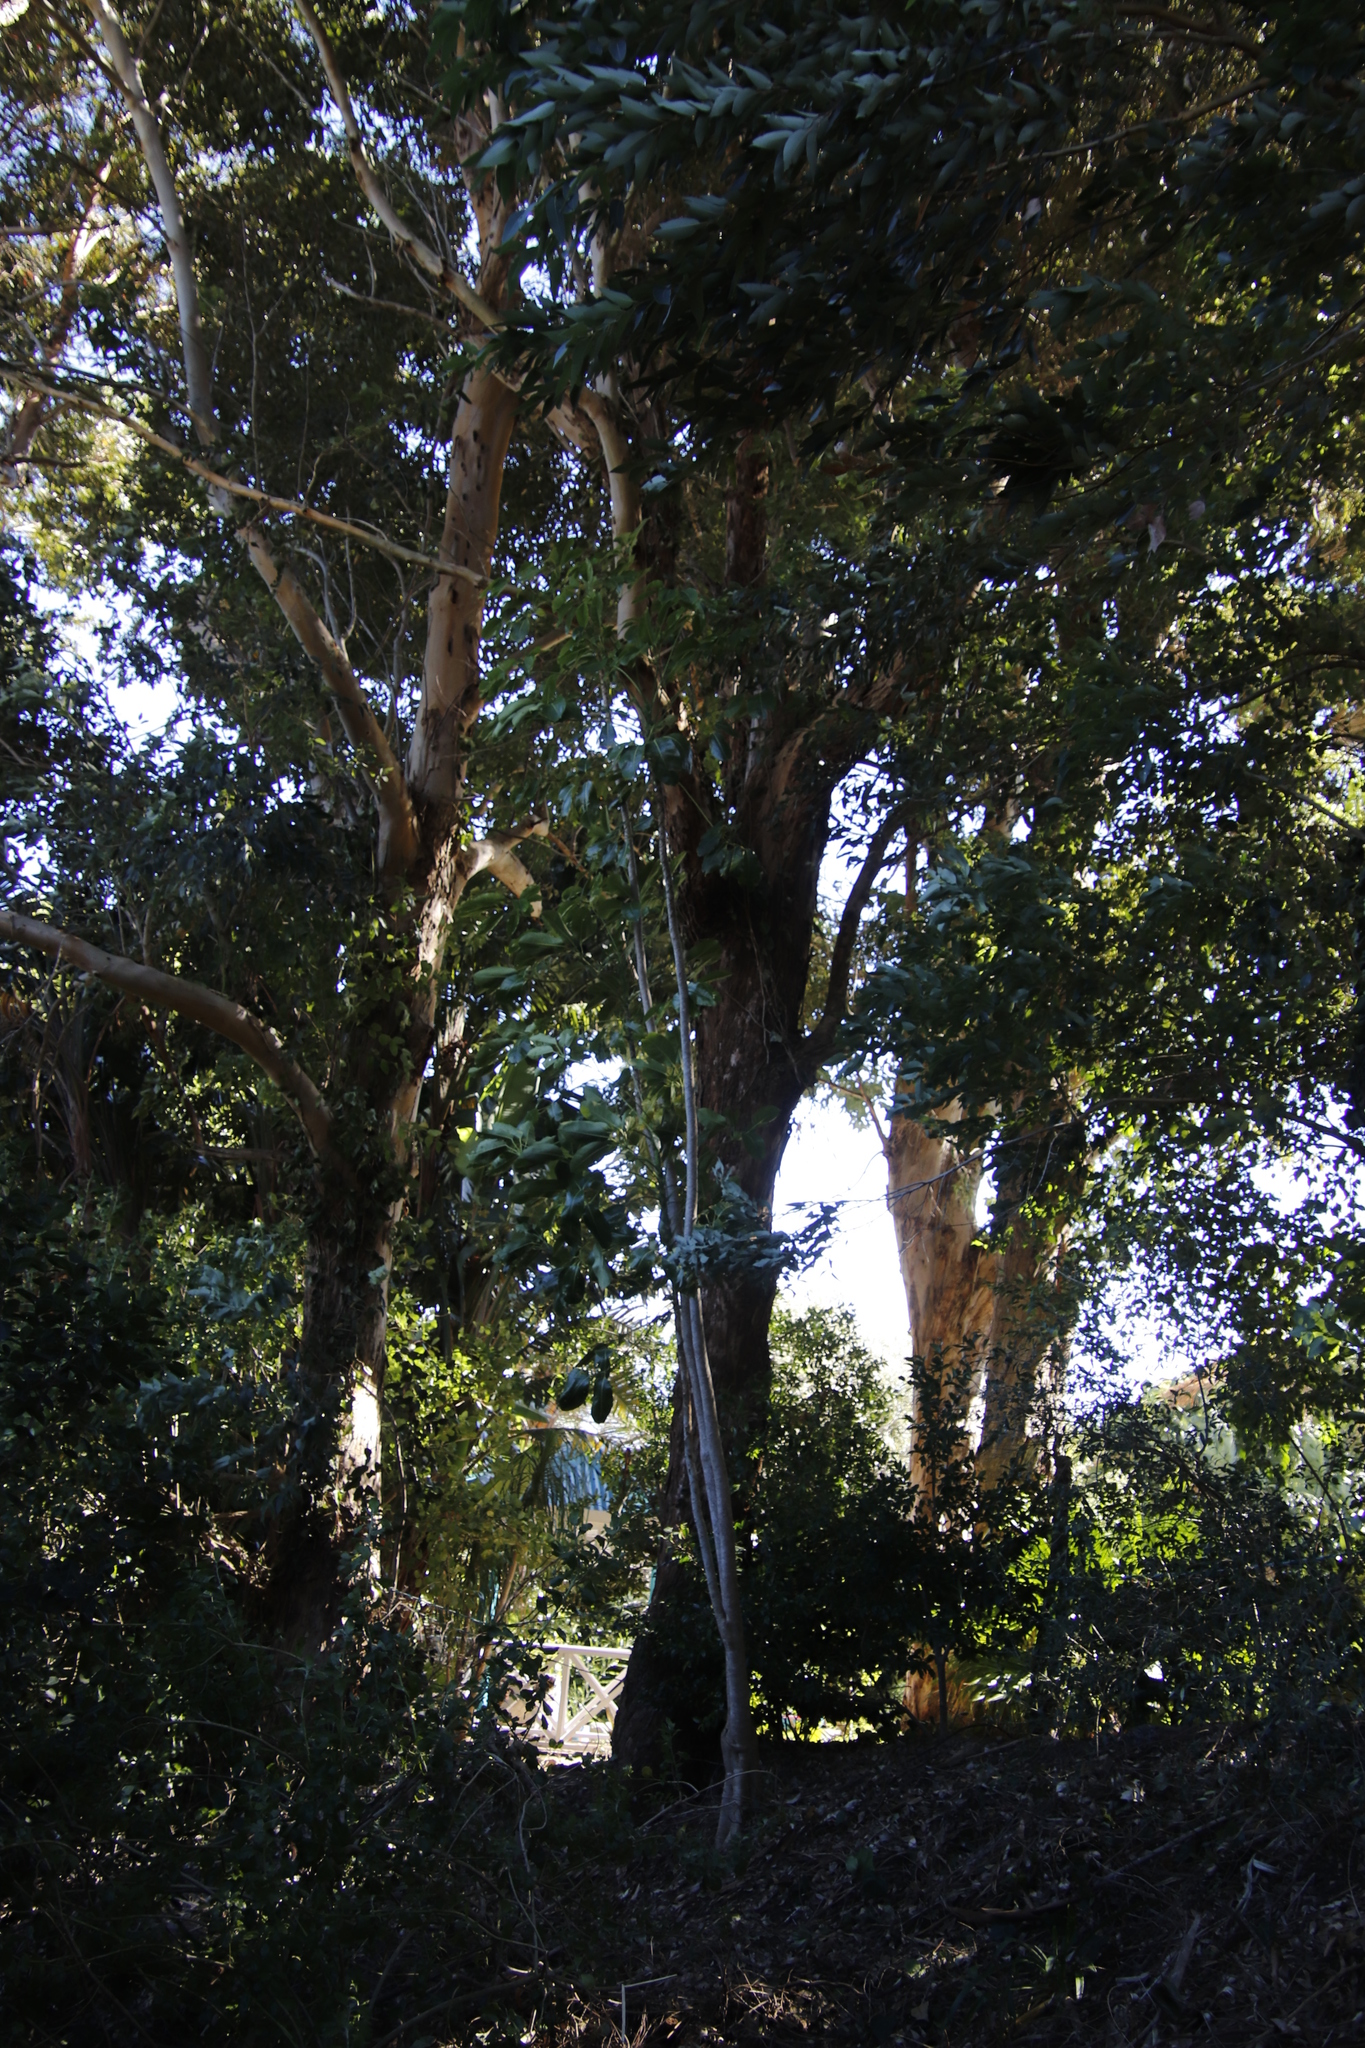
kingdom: Plantae
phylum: Tracheophyta
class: Magnoliopsida
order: Apiales
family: Araliaceae
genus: Heptapleurum
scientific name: Heptapleurum actinophyllum
